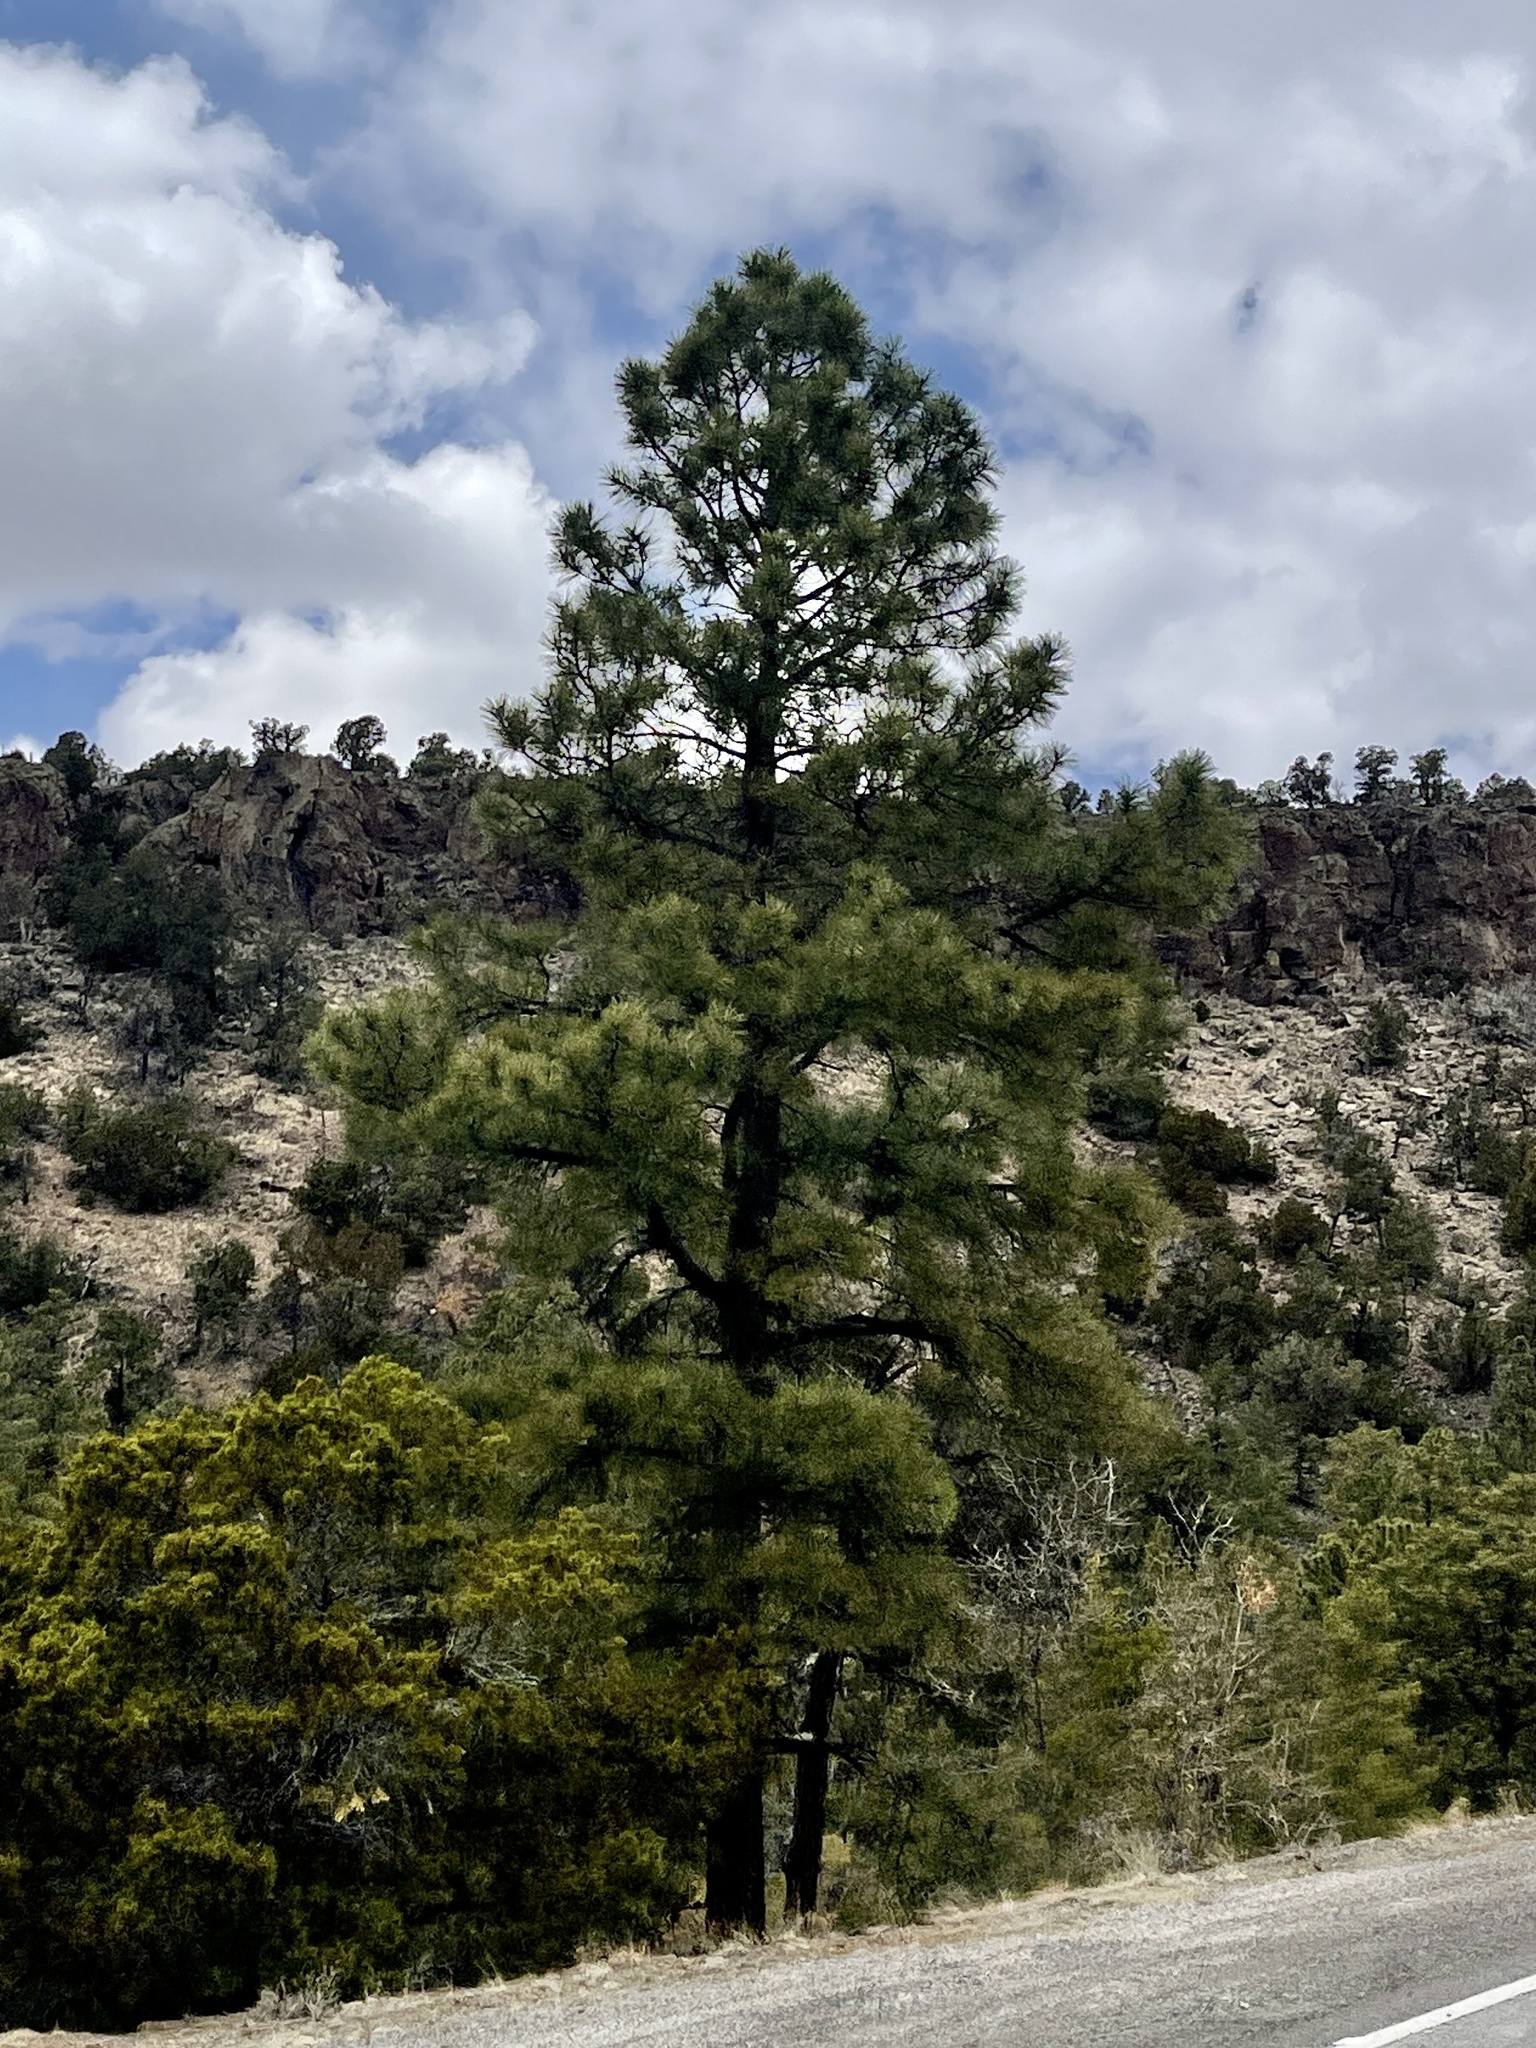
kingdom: Plantae
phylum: Tracheophyta
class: Pinopsida
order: Pinales
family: Pinaceae
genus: Pinus
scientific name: Pinus ponderosa
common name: Western yellow-pine
